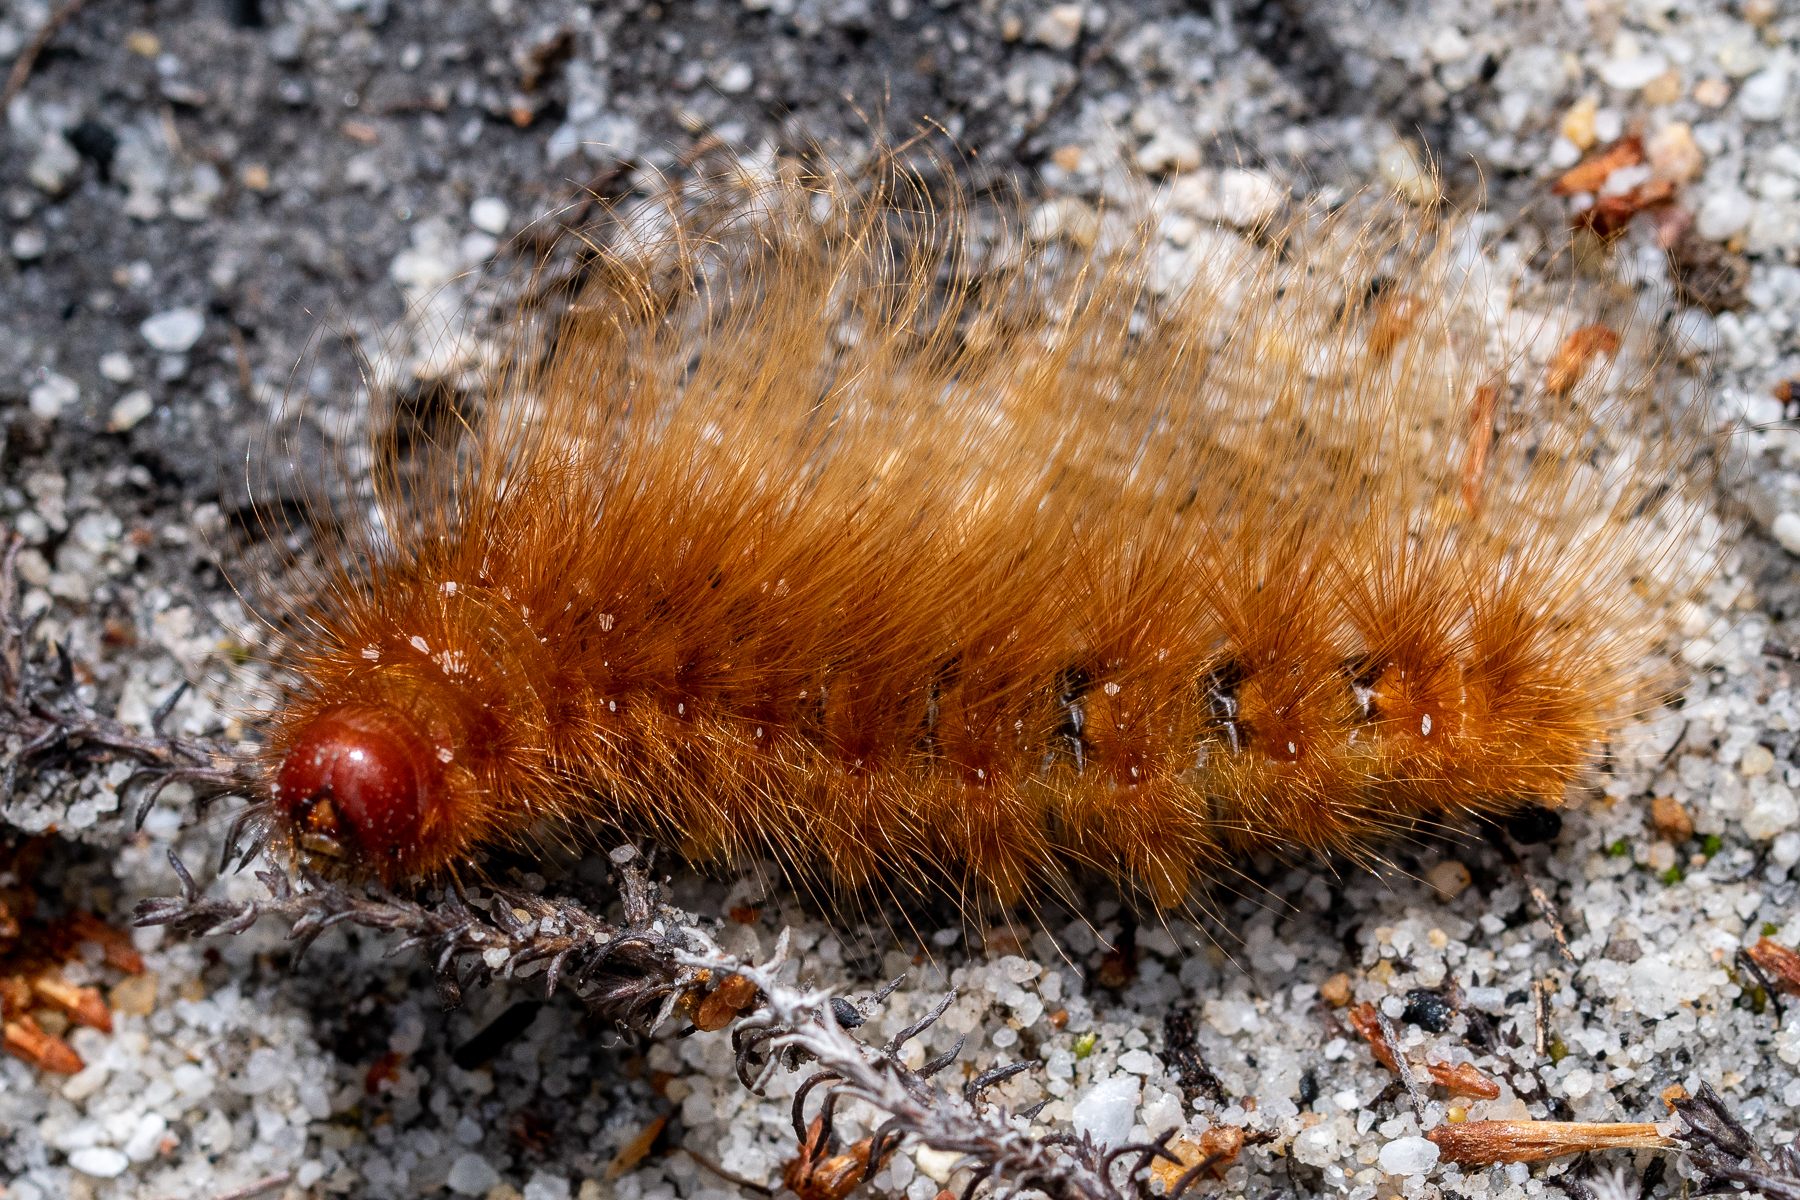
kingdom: Animalia
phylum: Arthropoda
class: Insecta
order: Lepidoptera
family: Eupterotidae
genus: Phyllalia
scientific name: Phyllalia patens
